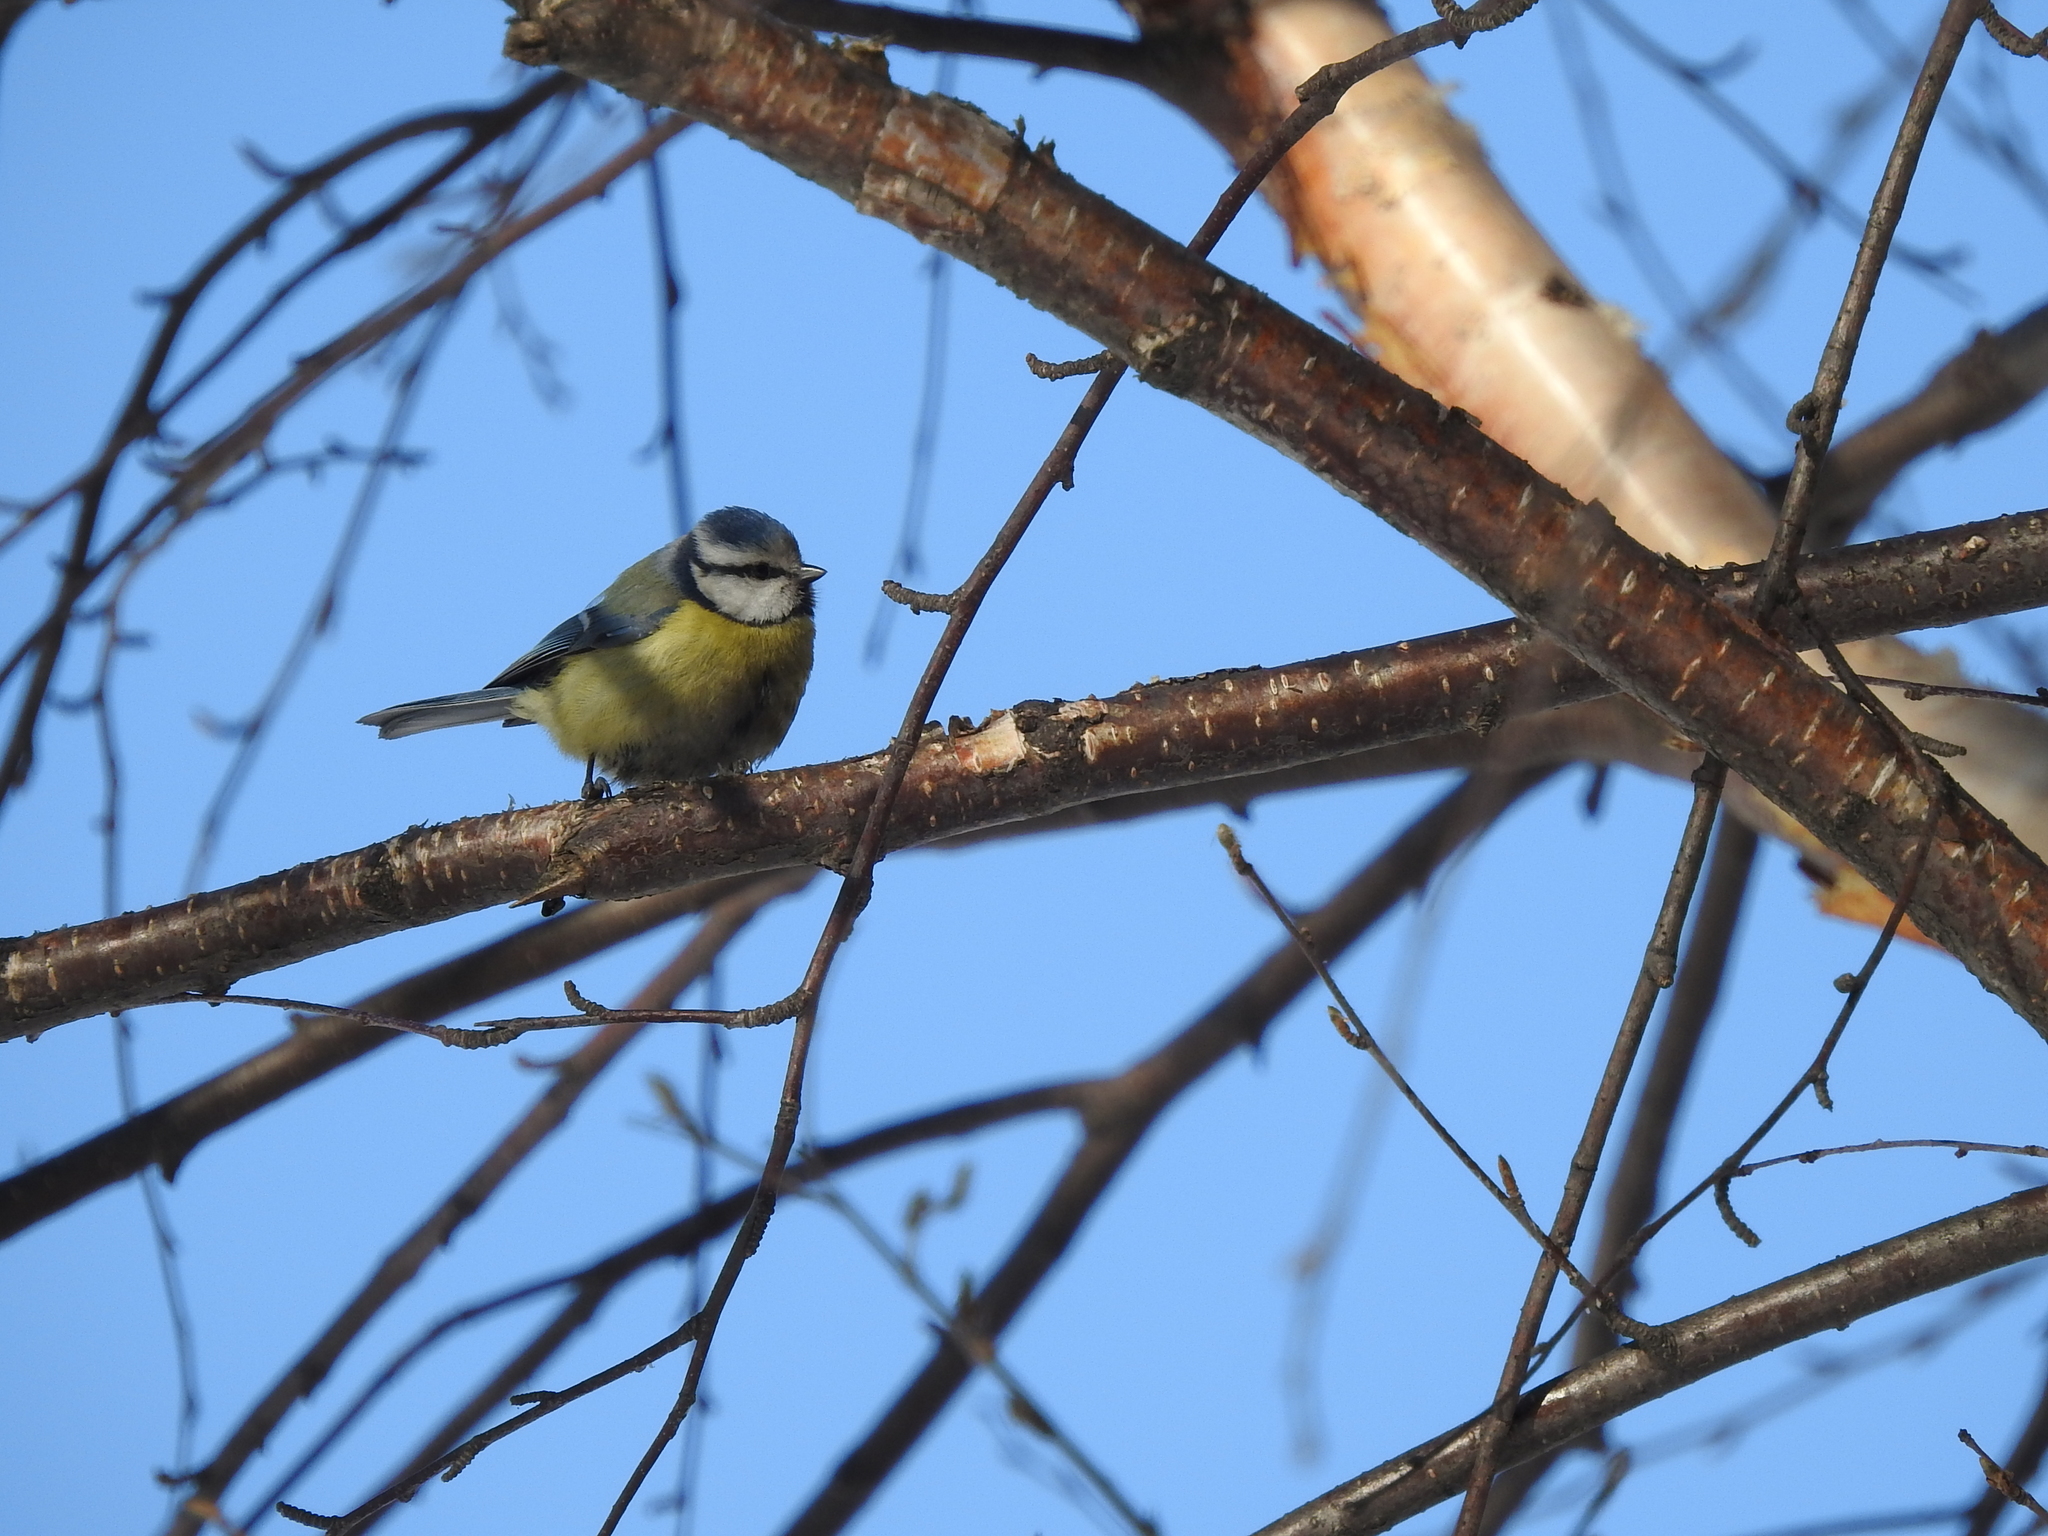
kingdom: Animalia
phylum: Chordata
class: Aves
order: Passeriformes
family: Paridae
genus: Cyanistes
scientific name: Cyanistes caeruleus
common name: Eurasian blue tit
